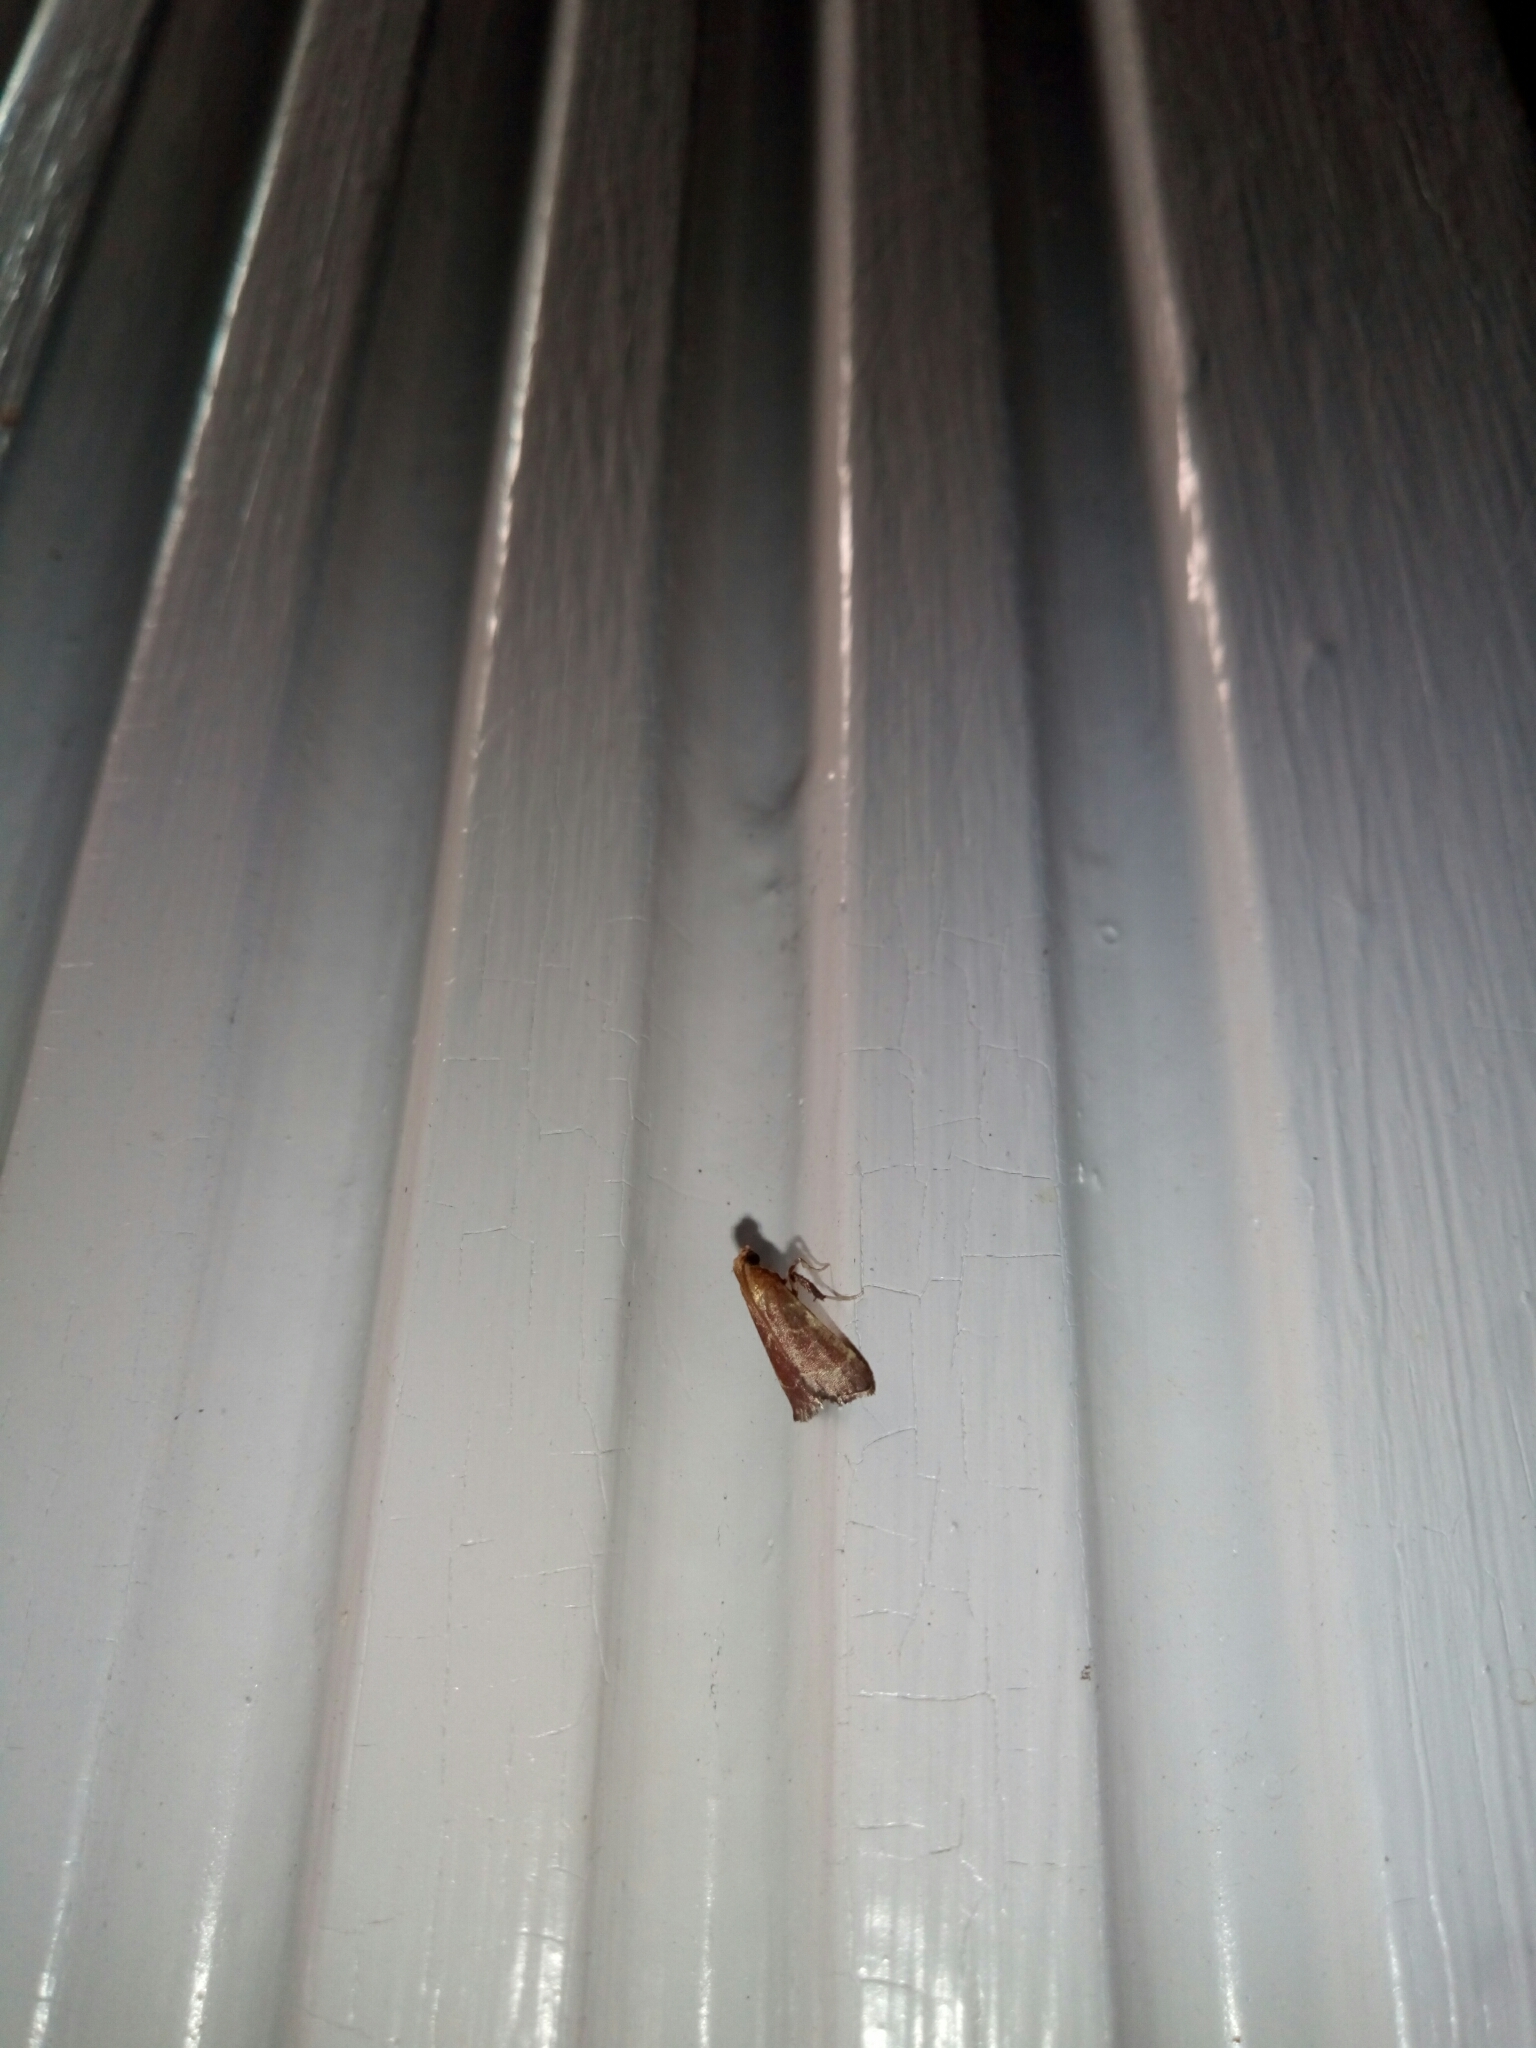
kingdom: Animalia
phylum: Arthropoda
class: Insecta
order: Lepidoptera
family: Pyralidae
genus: Arta
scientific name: Arta statalis
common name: Posturing arta moth
